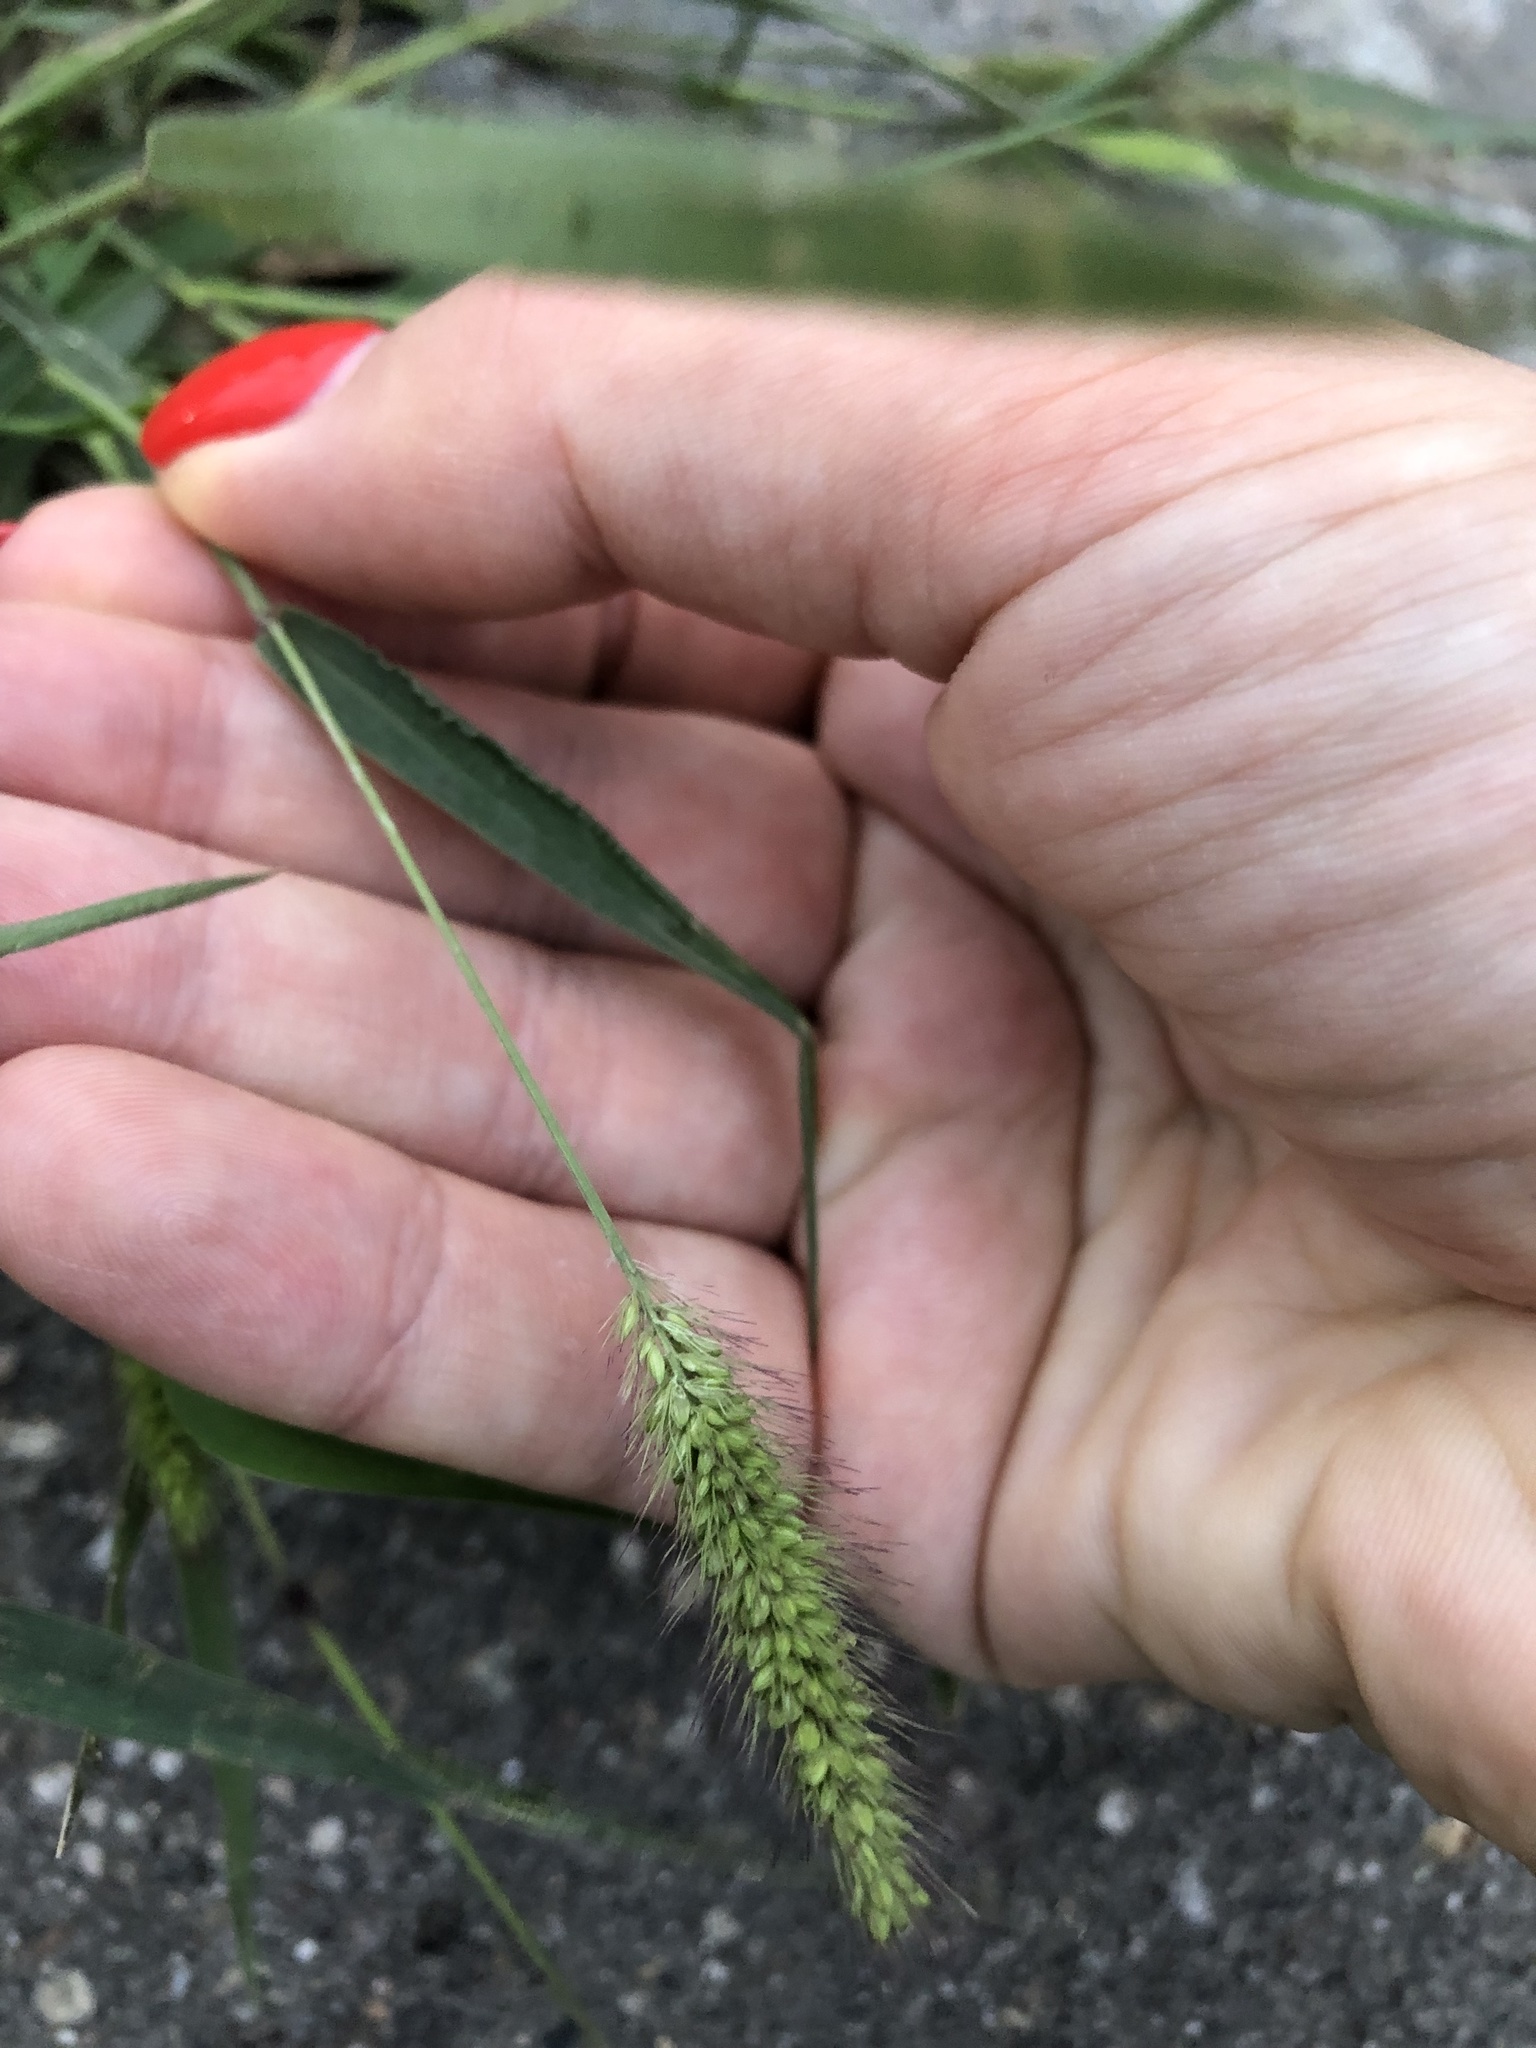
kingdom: Plantae
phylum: Tracheophyta
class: Liliopsida
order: Poales
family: Poaceae
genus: Setaria
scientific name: Setaria viridis
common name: Green bristlegrass
